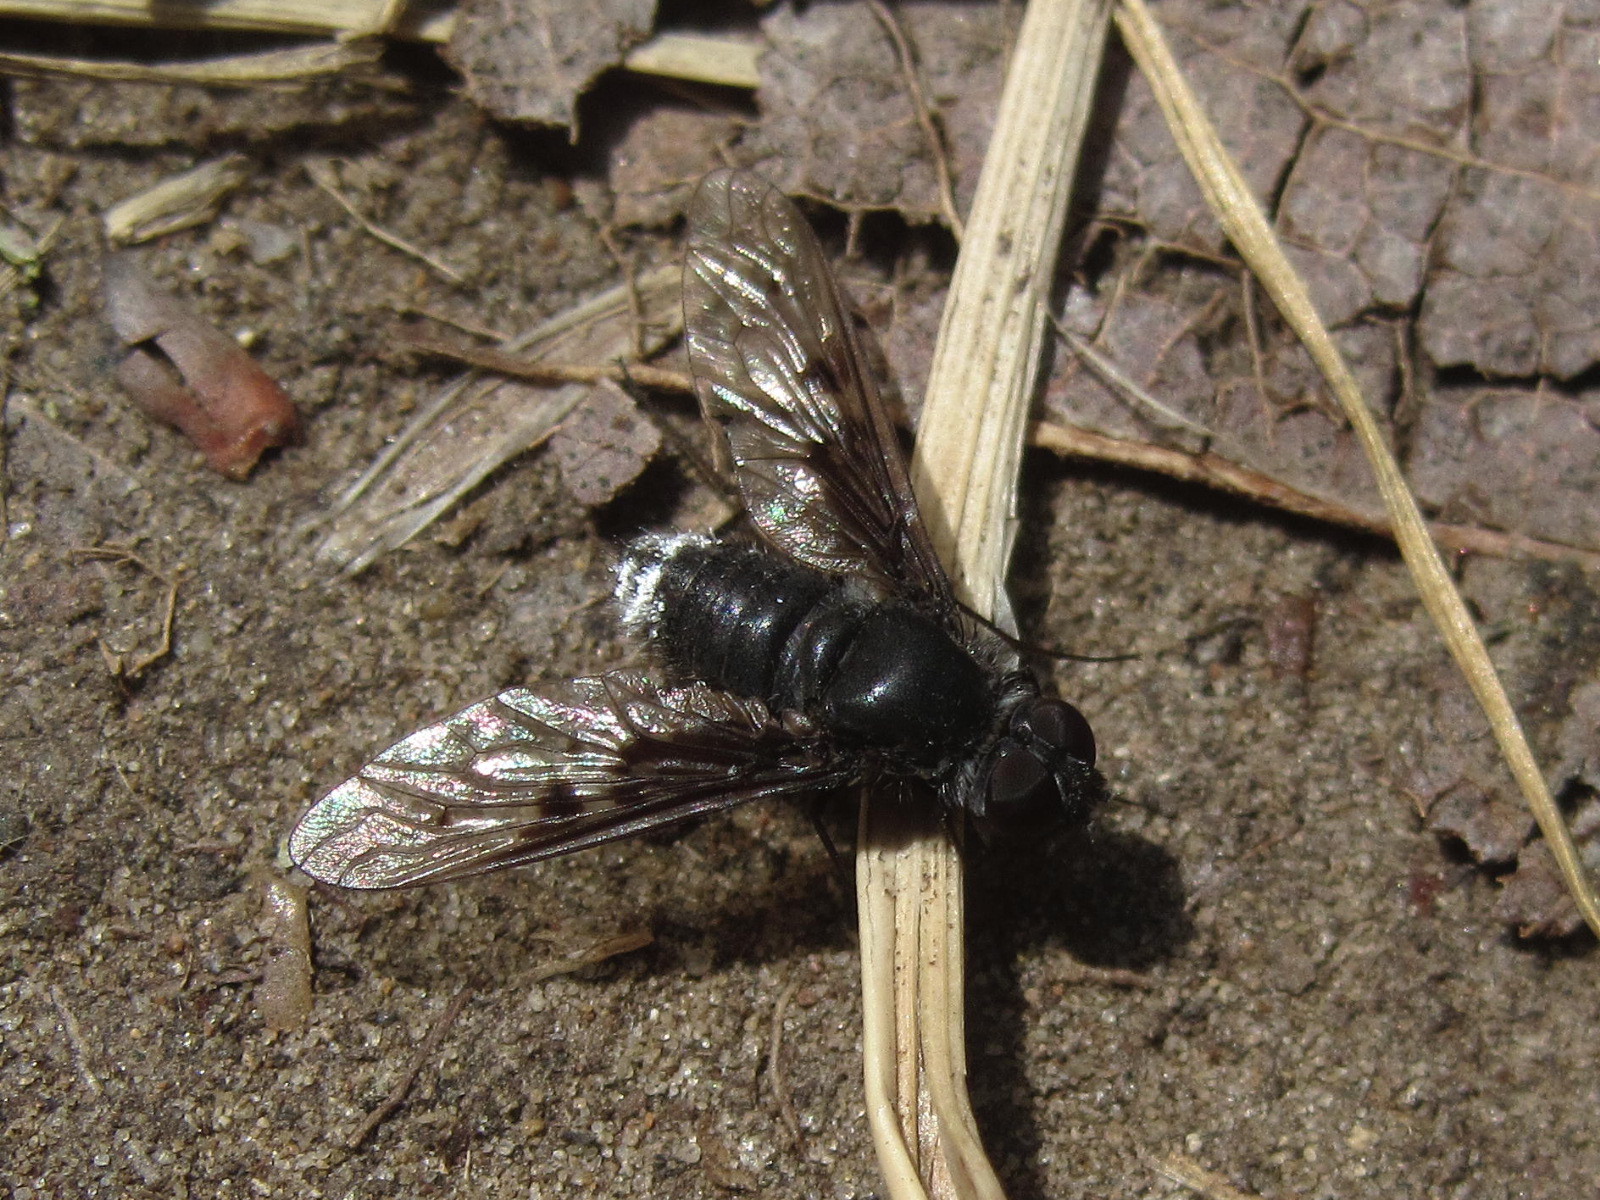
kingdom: Animalia
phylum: Arthropoda
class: Insecta
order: Diptera
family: Bombyliidae
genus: Anthrax
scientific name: Anthrax trifasciatus
